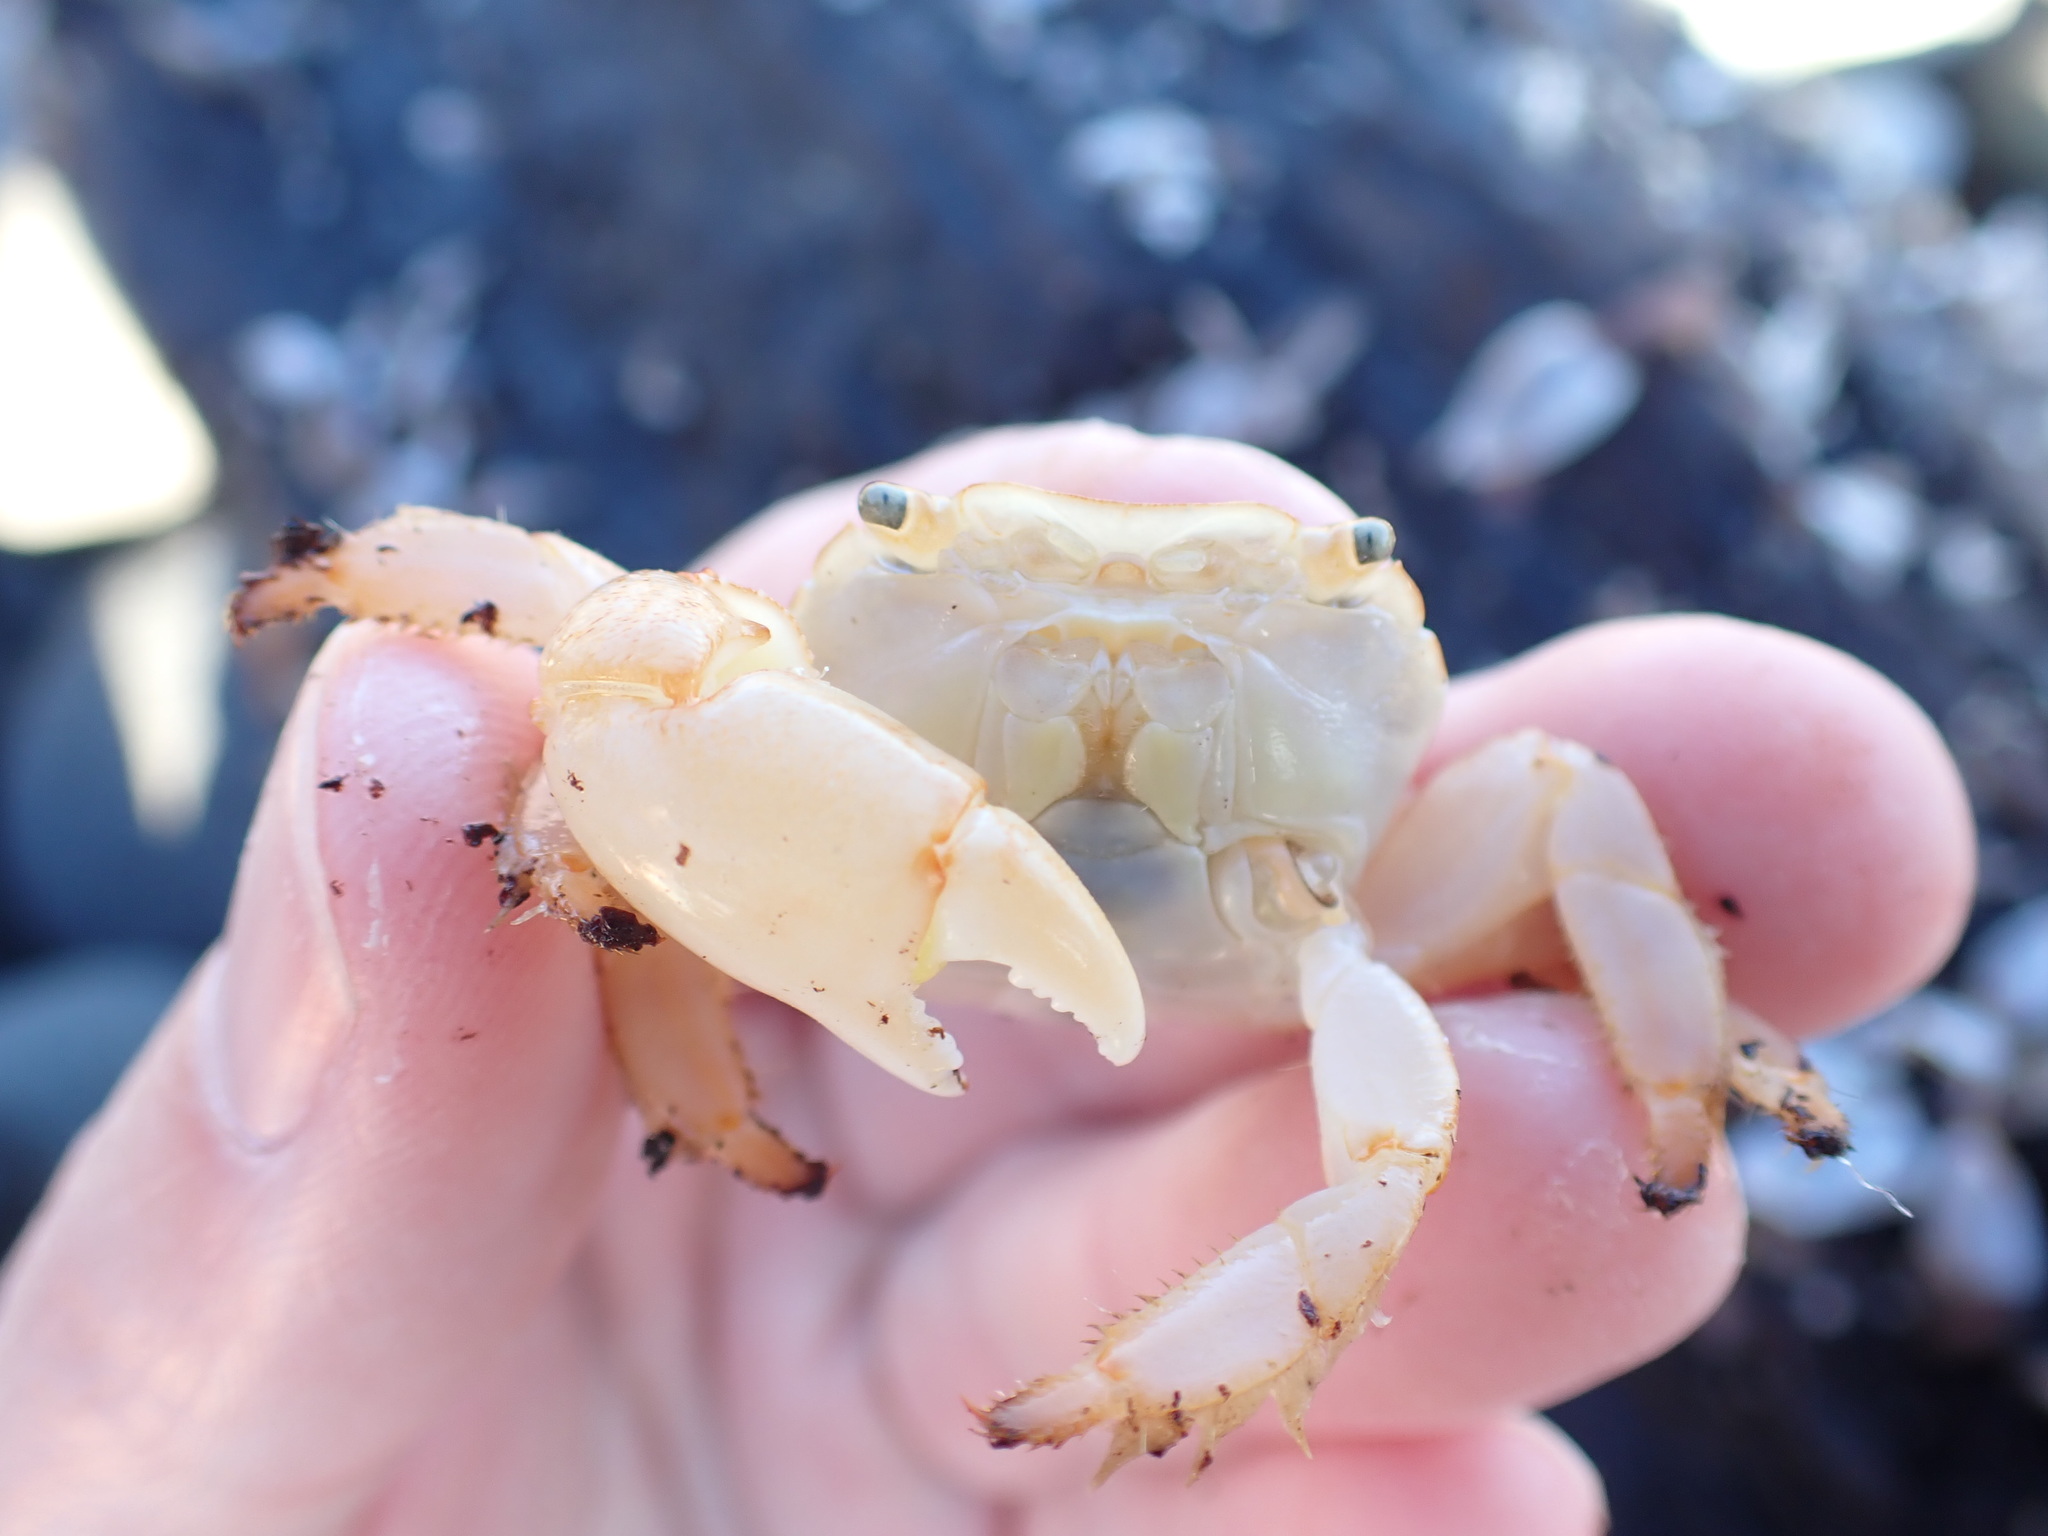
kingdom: Animalia
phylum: Arthropoda
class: Malacostraca
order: Decapoda
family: Grapsidae
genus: Planes
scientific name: Planes minutus
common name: Gulf weed crab
